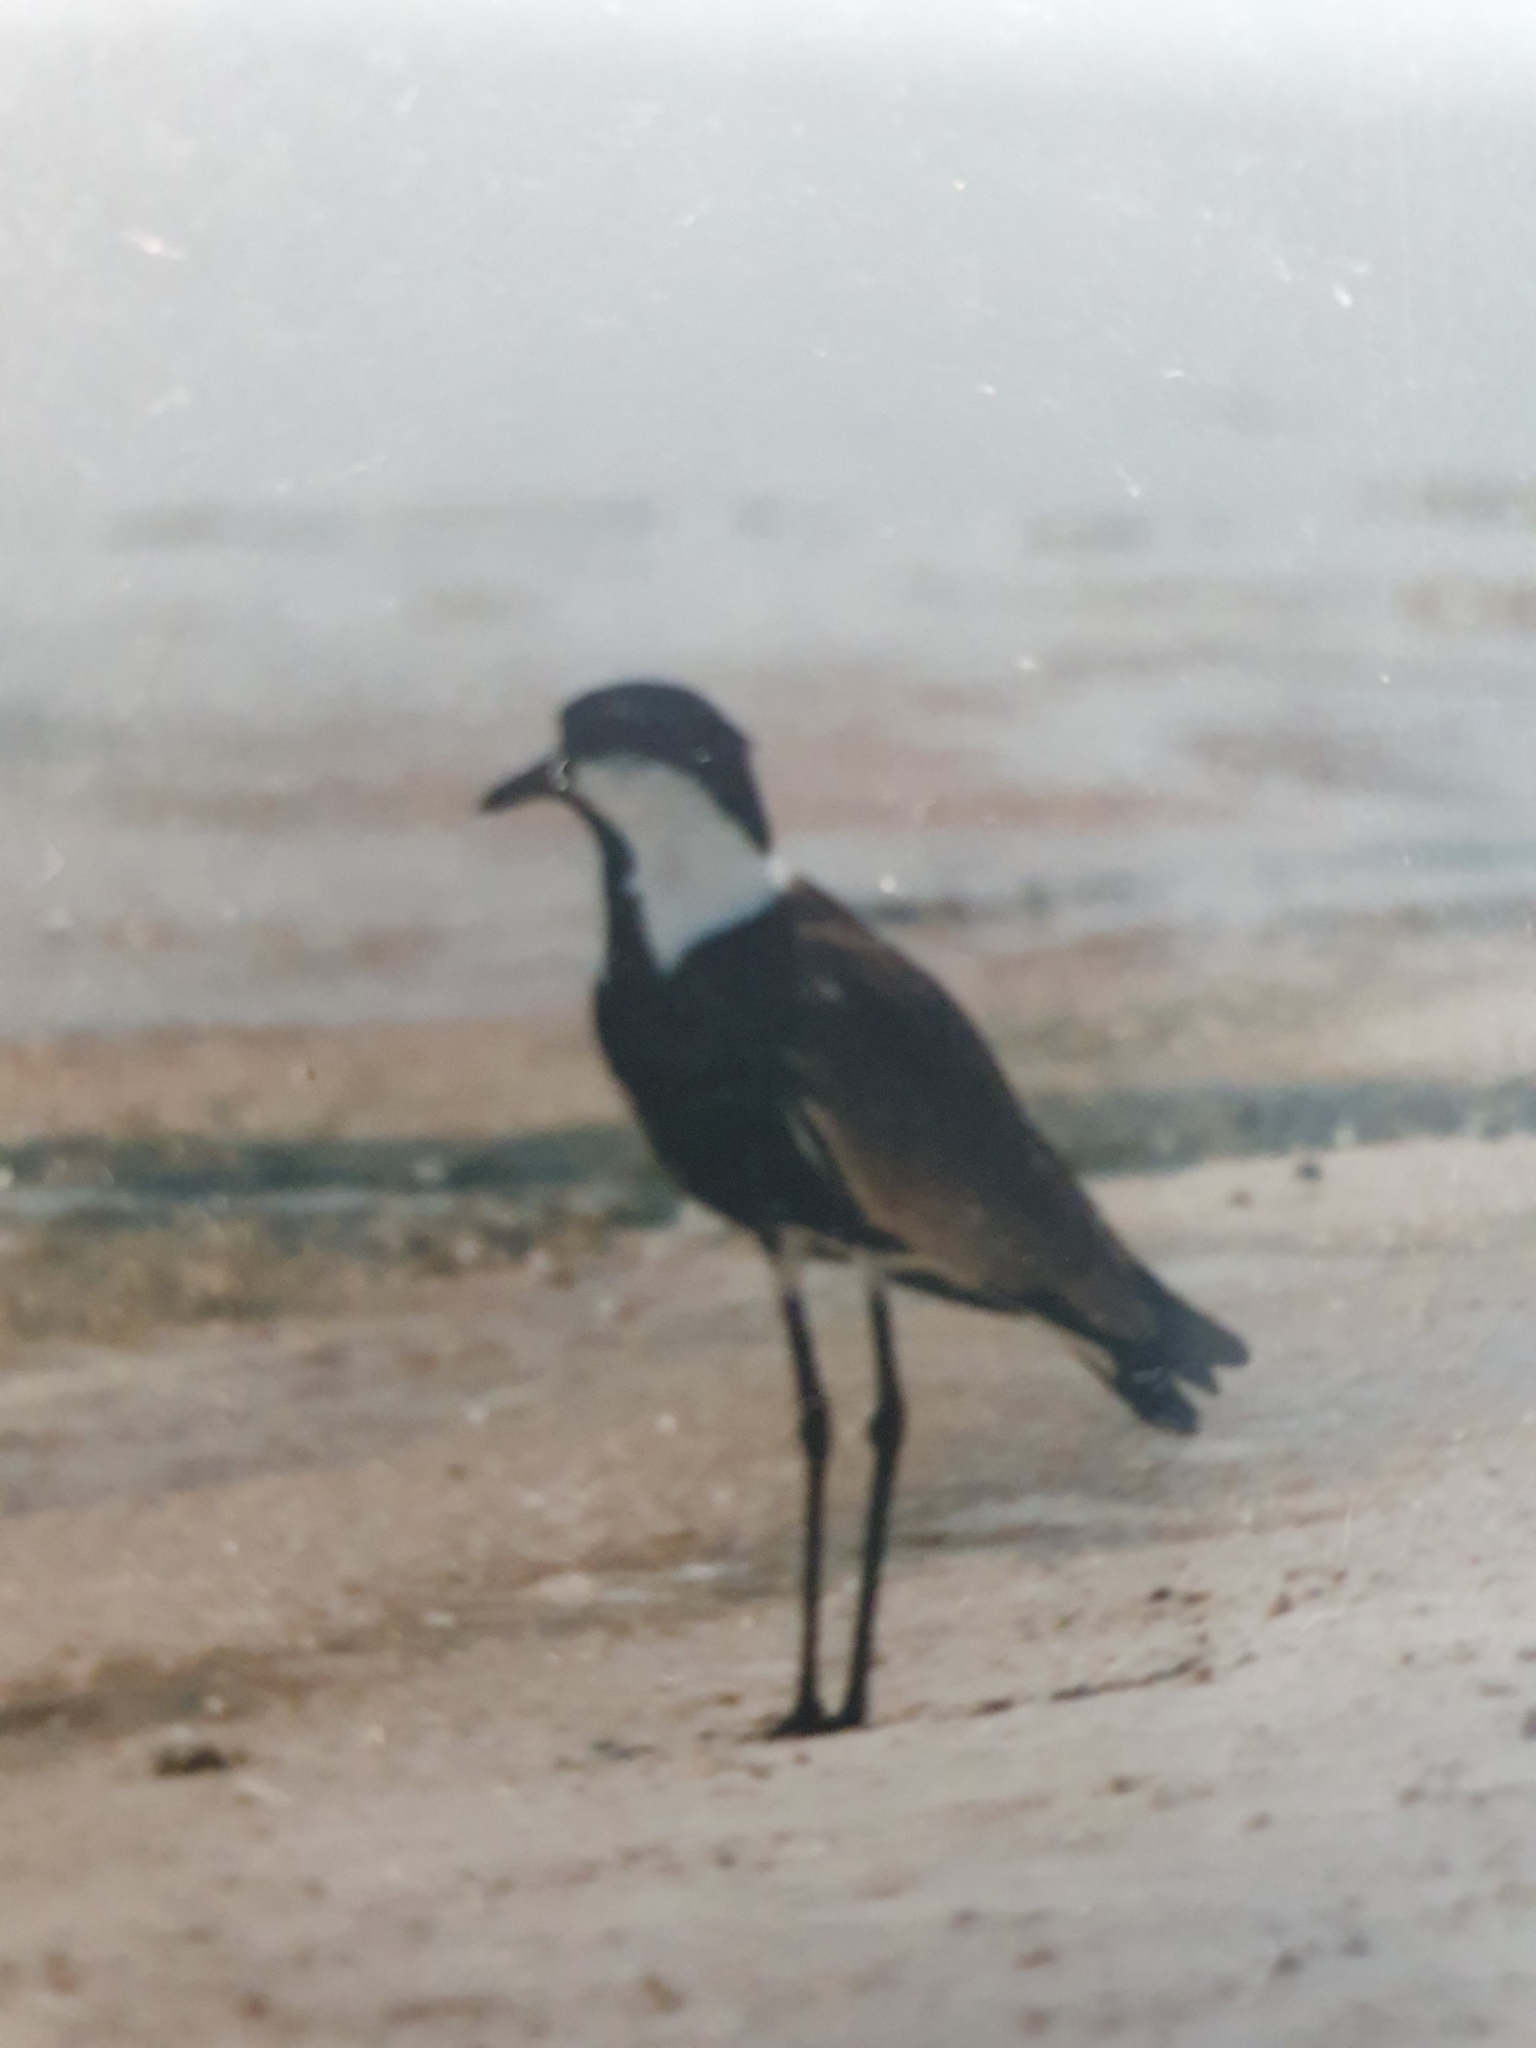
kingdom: Animalia
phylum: Chordata
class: Aves
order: Charadriiformes
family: Charadriidae
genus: Vanellus
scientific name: Vanellus spinosus
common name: Spur-winged lapwing
